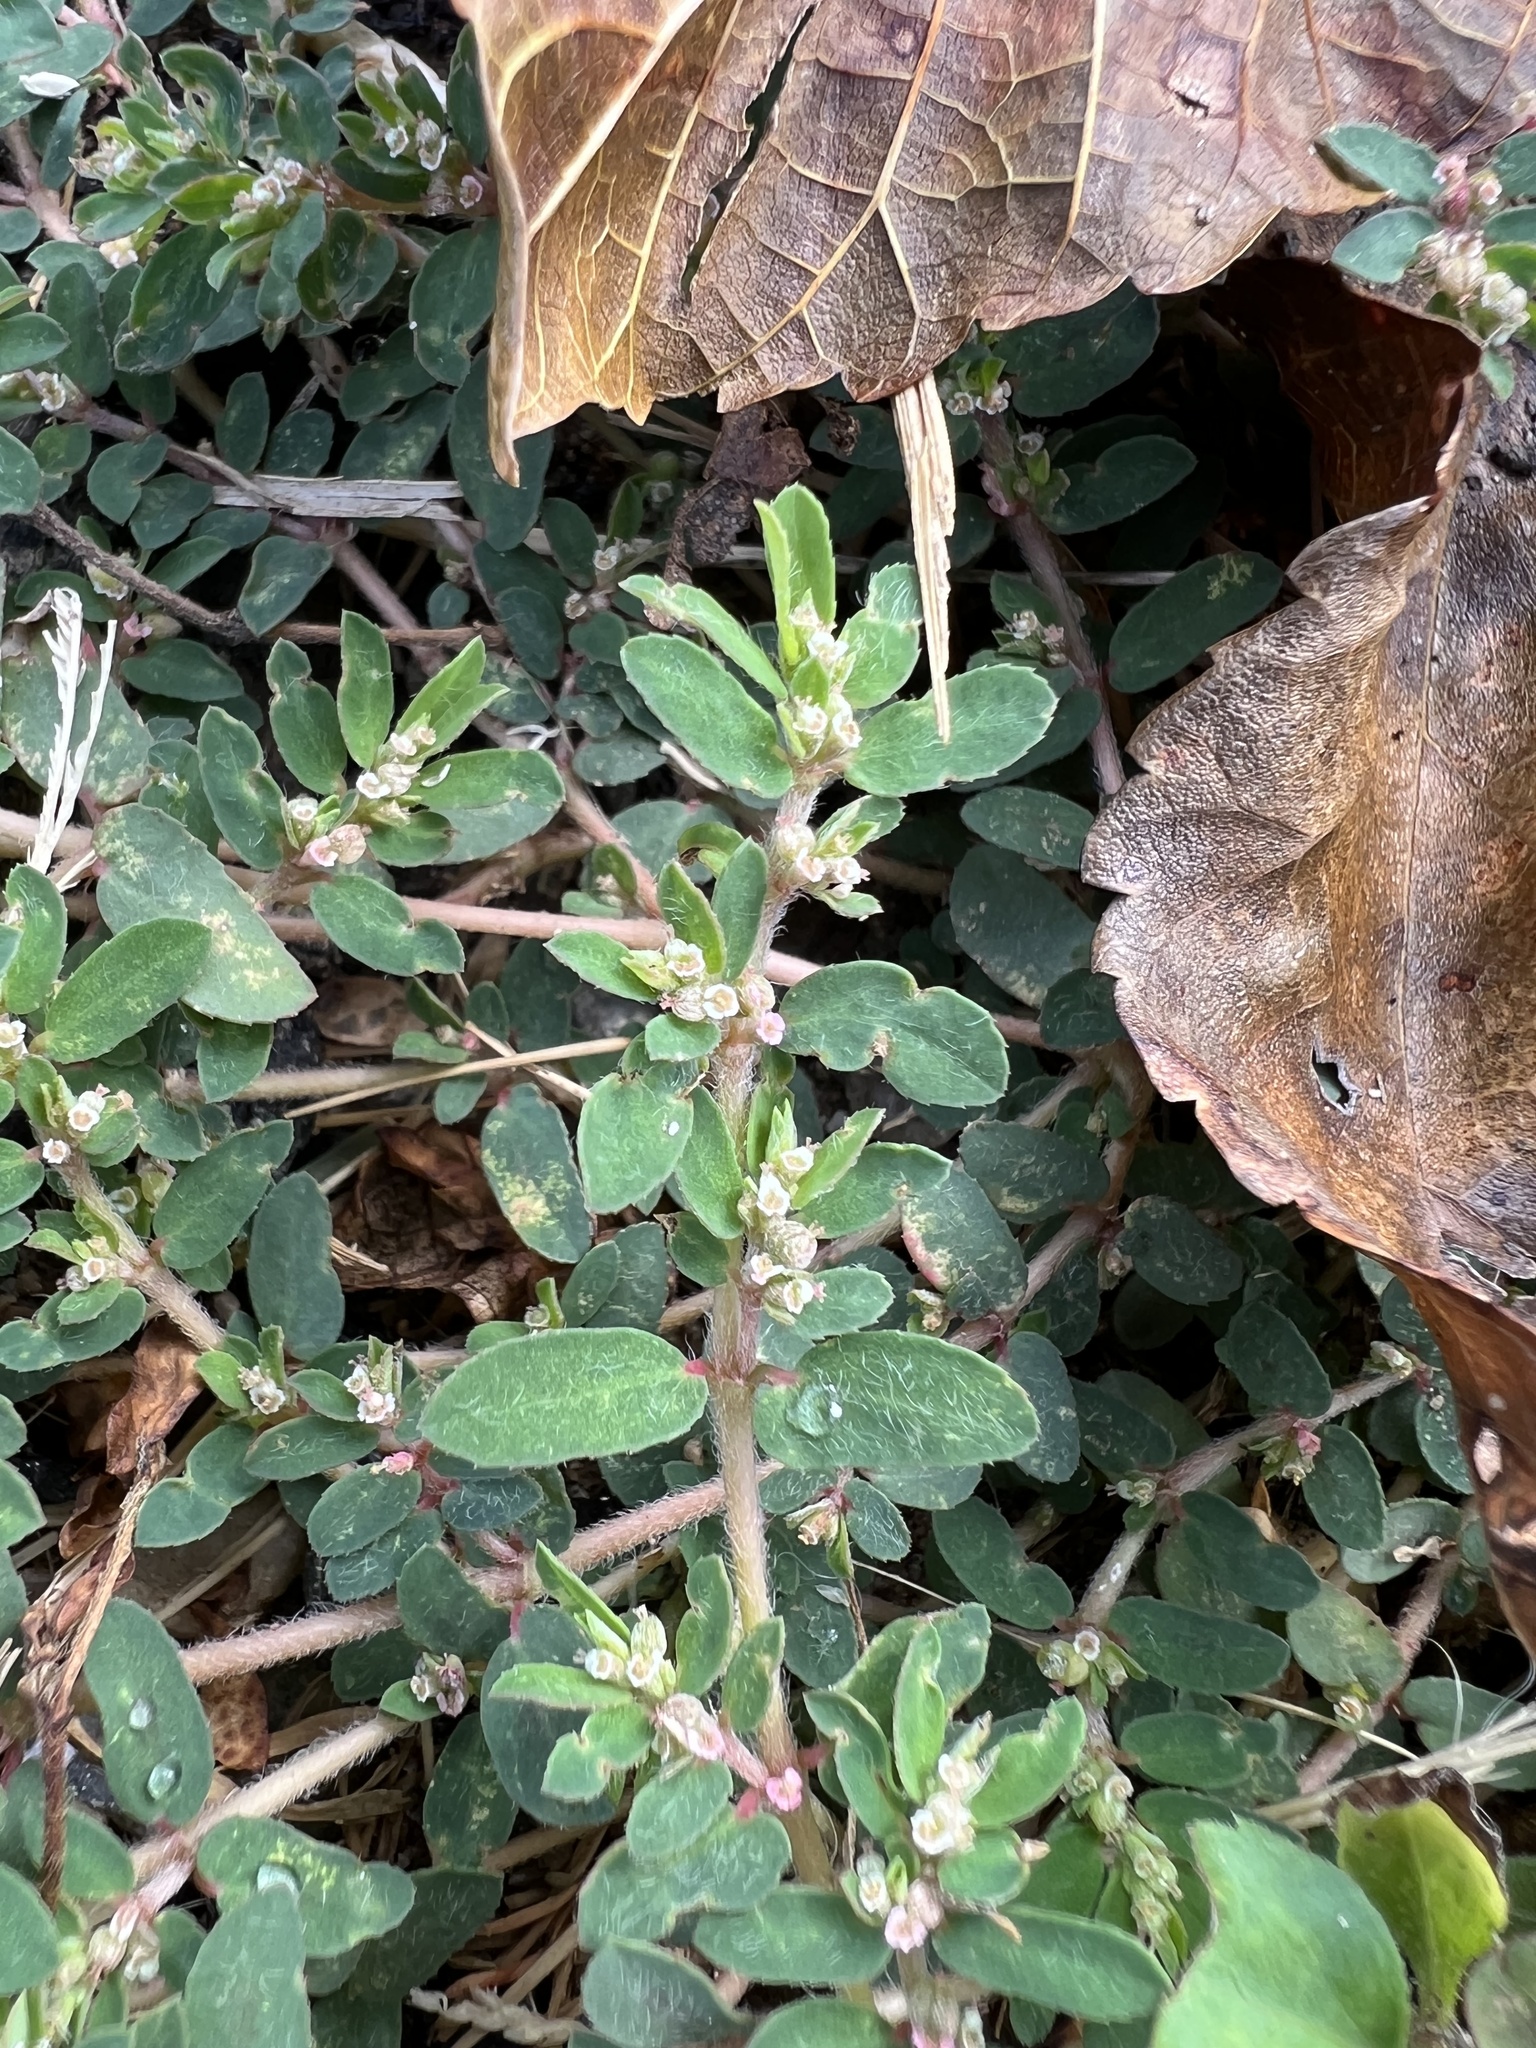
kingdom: Plantae
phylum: Tracheophyta
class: Magnoliopsida
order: Malpighiales
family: Euphorbiaceae
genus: Euphorbia
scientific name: Euphorbia maculata
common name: Spotted spurge
